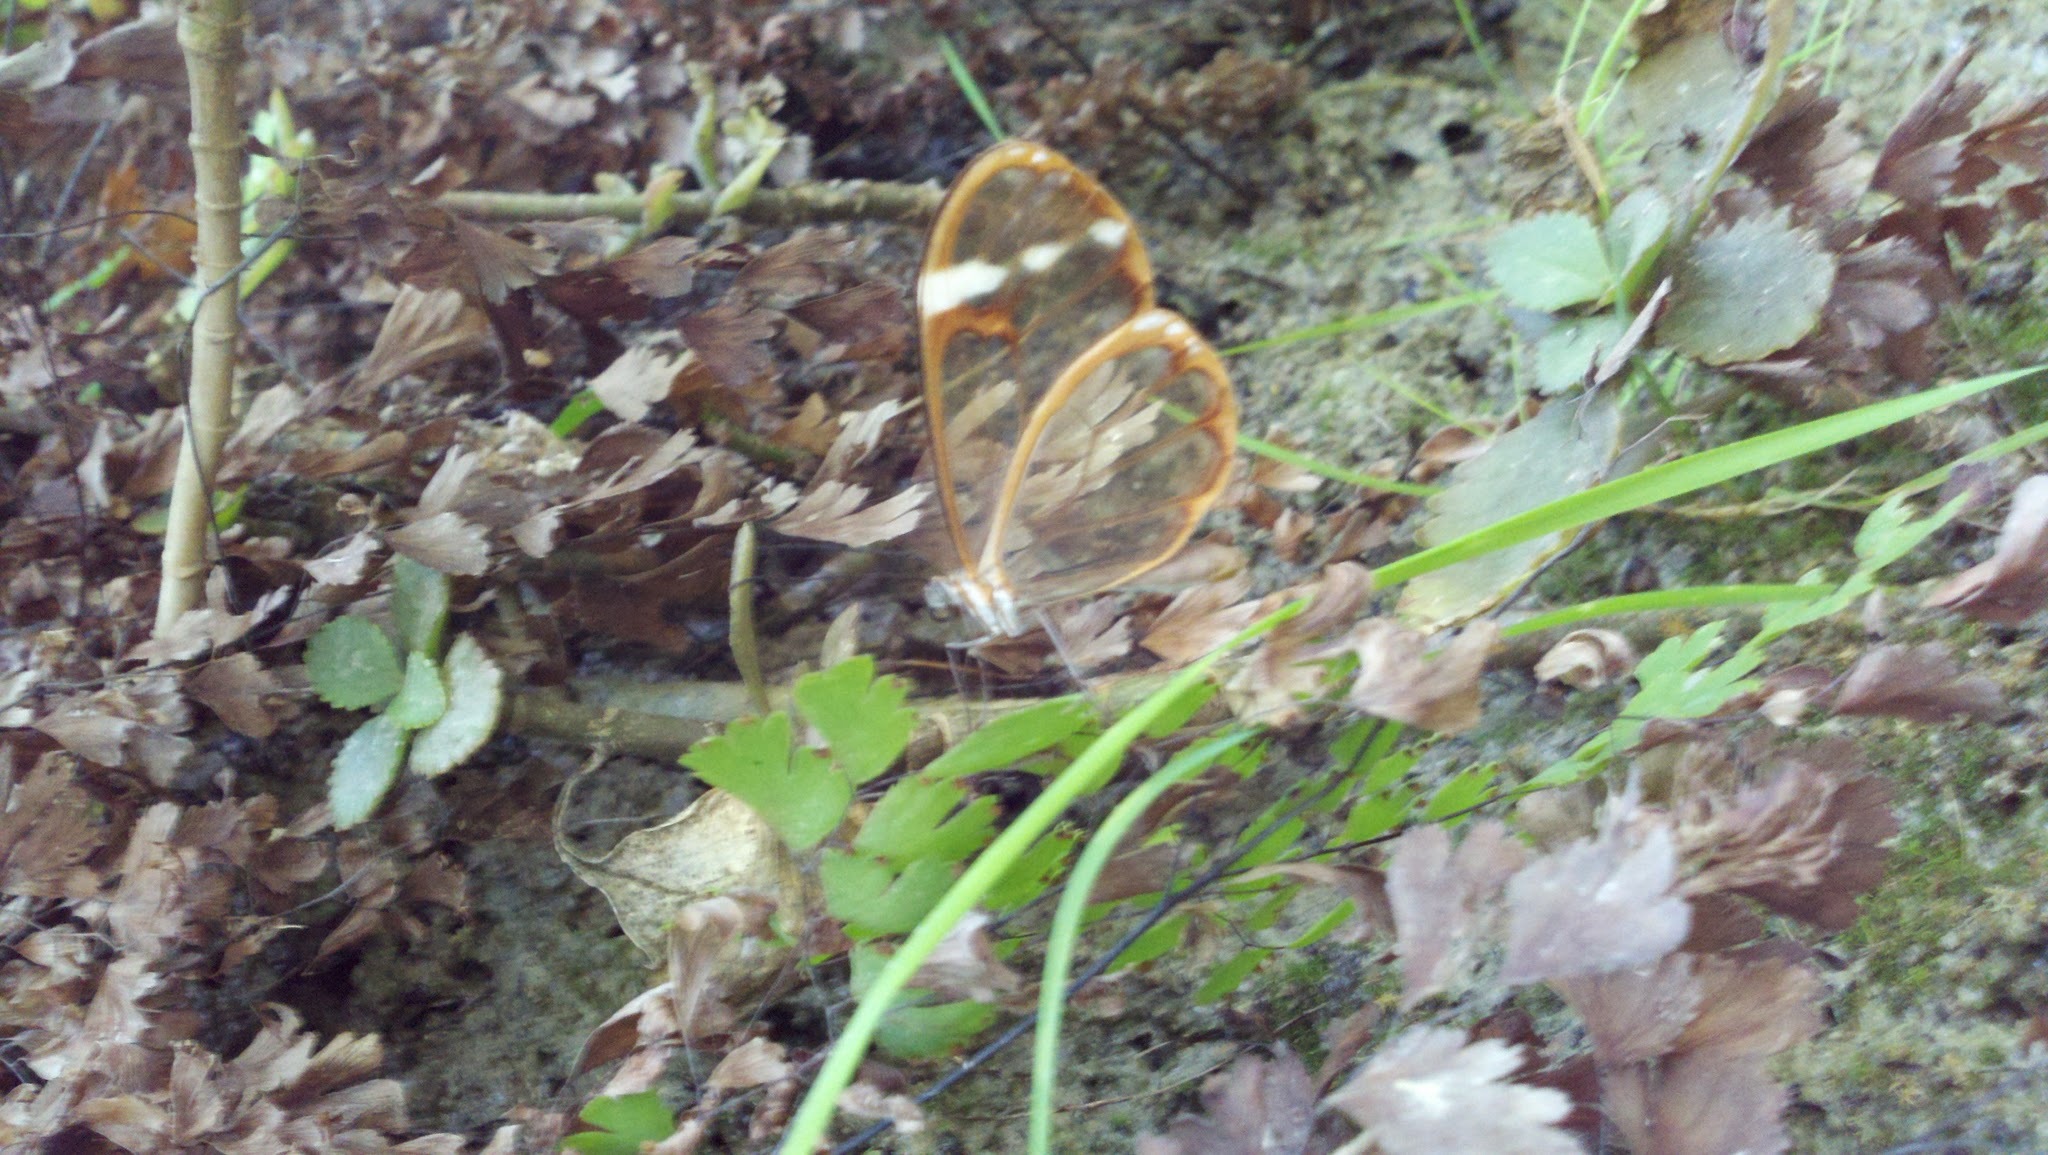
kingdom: Animalia
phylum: Arthropoda
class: Insecta
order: Lepidoptera
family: Nymphalidae
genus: Greta
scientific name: Greta annette
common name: White-spotted clearwing
